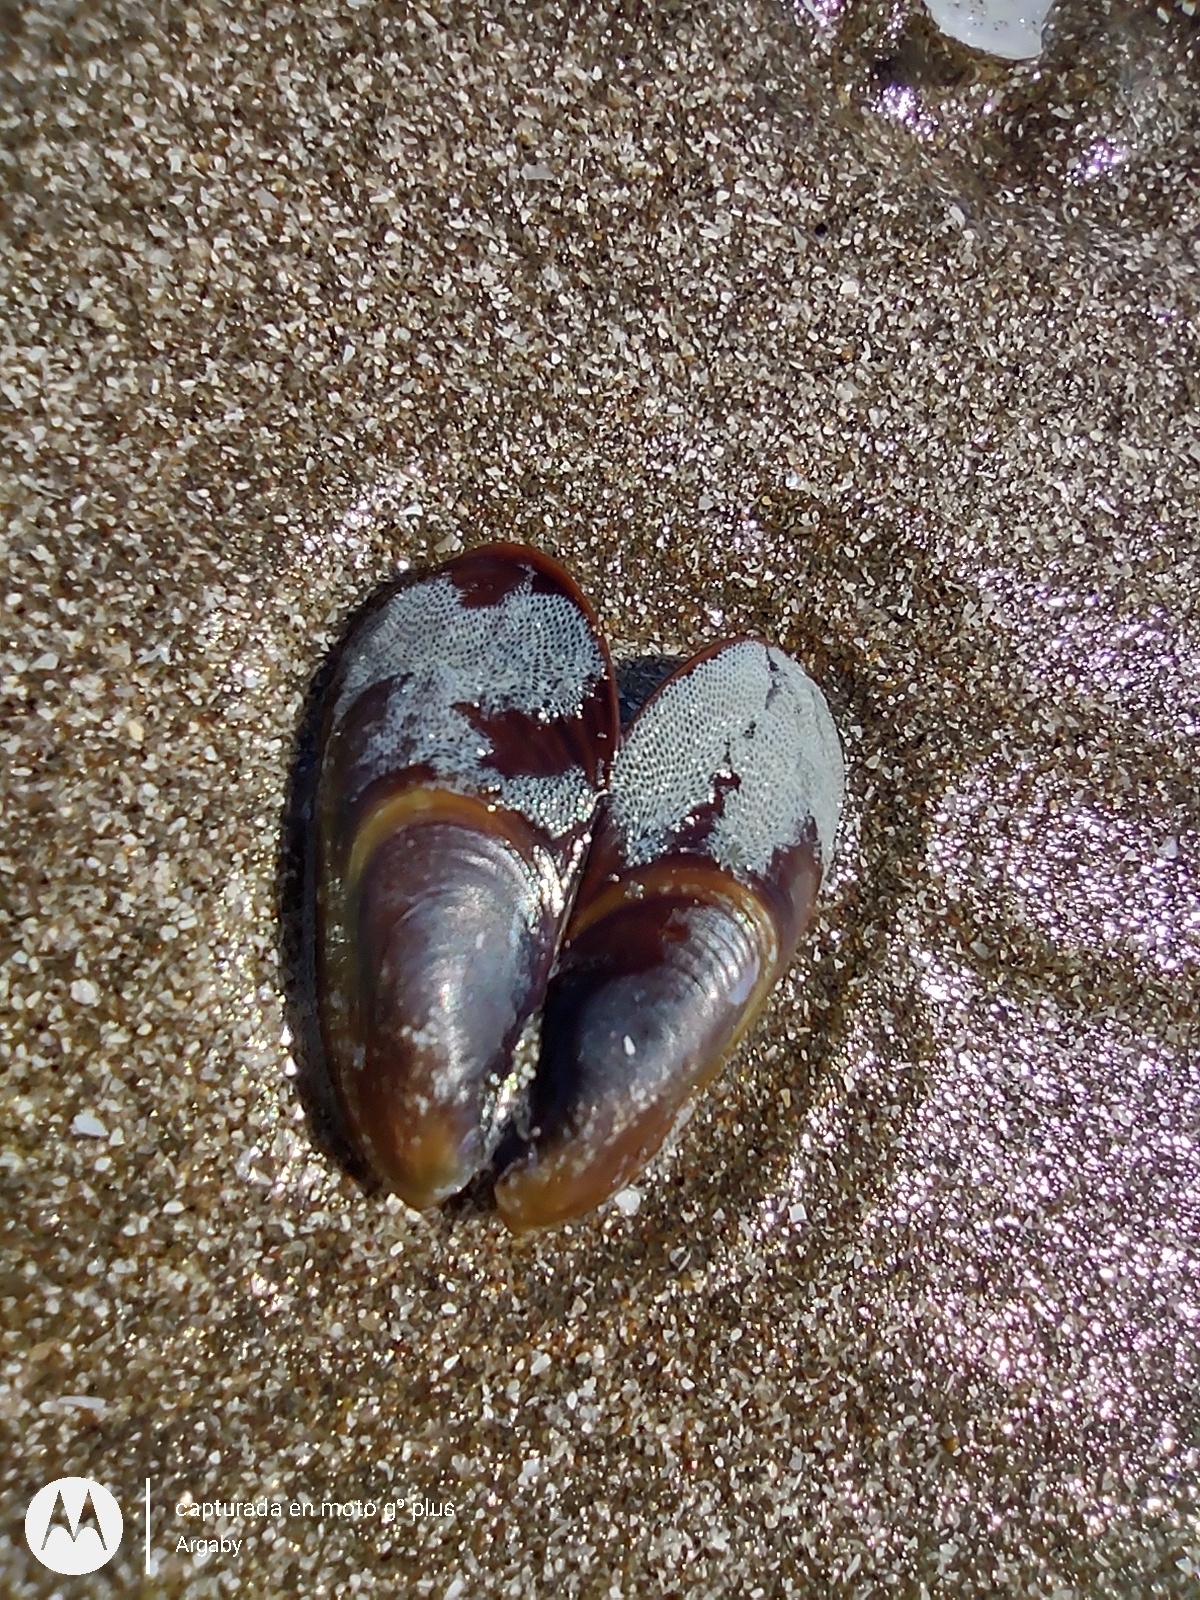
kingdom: Animalia
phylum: Mollusca
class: Bivalvia
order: Mytilida
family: Mytilidae
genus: Brachidontes
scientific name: Brachidontes rodriguezii
